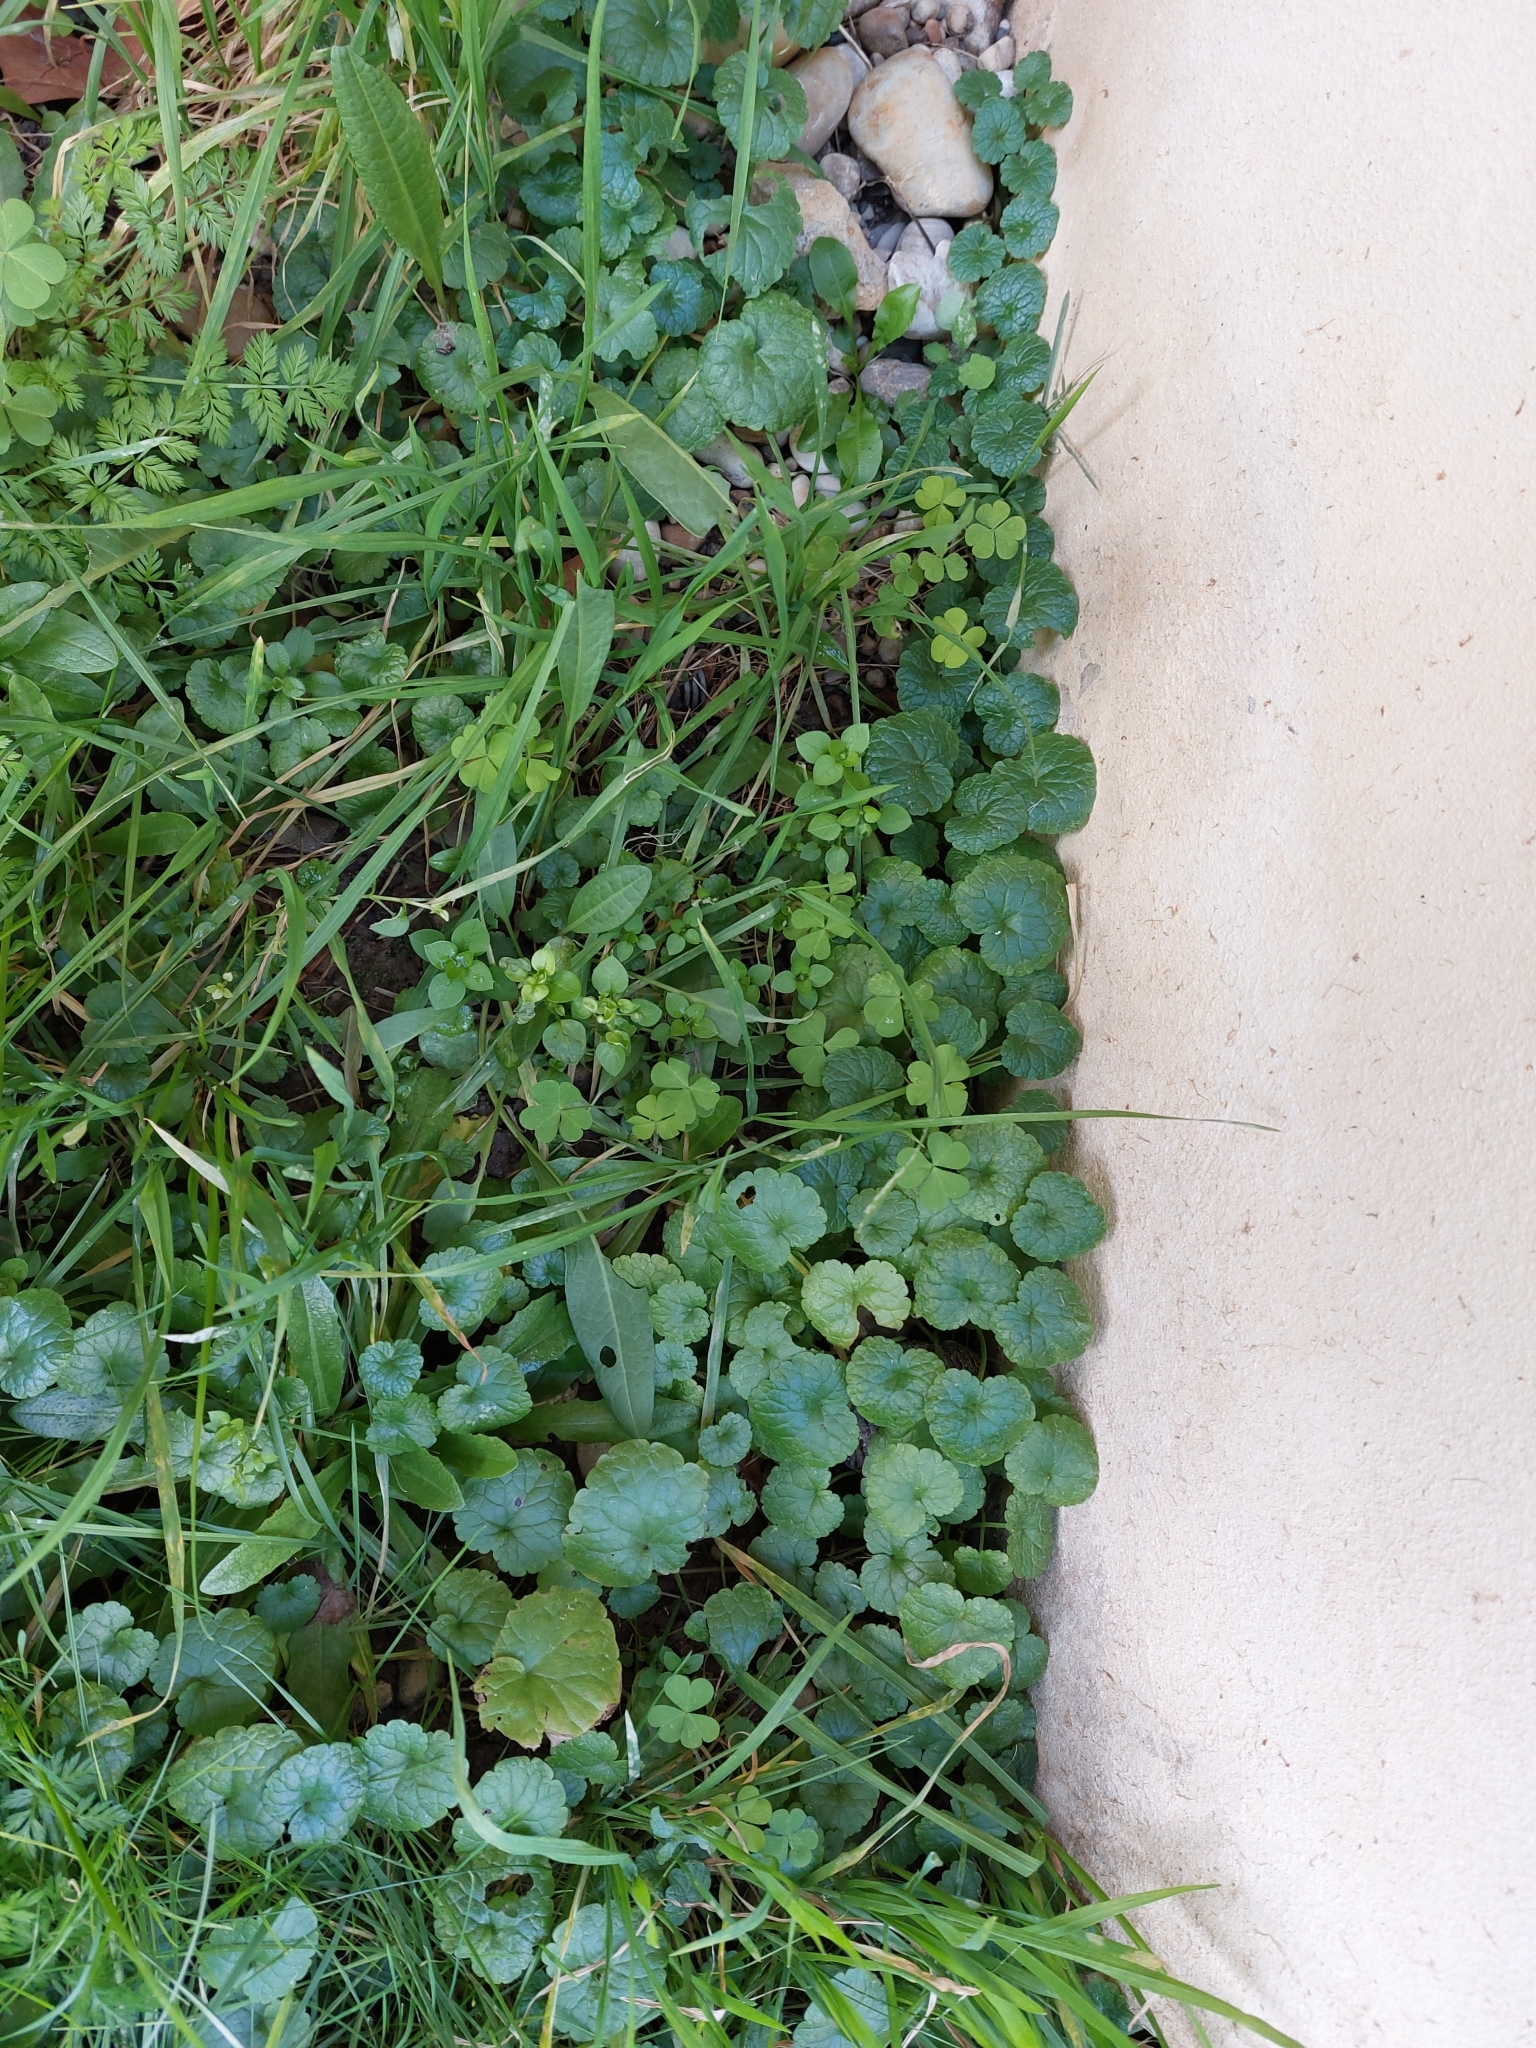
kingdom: Plantae
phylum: Tracheophyta
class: Magnoliopsida
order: Lamiales
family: Lamiaceae
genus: Glechoma
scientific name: Glechoma hederacea
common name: Ground ivy
